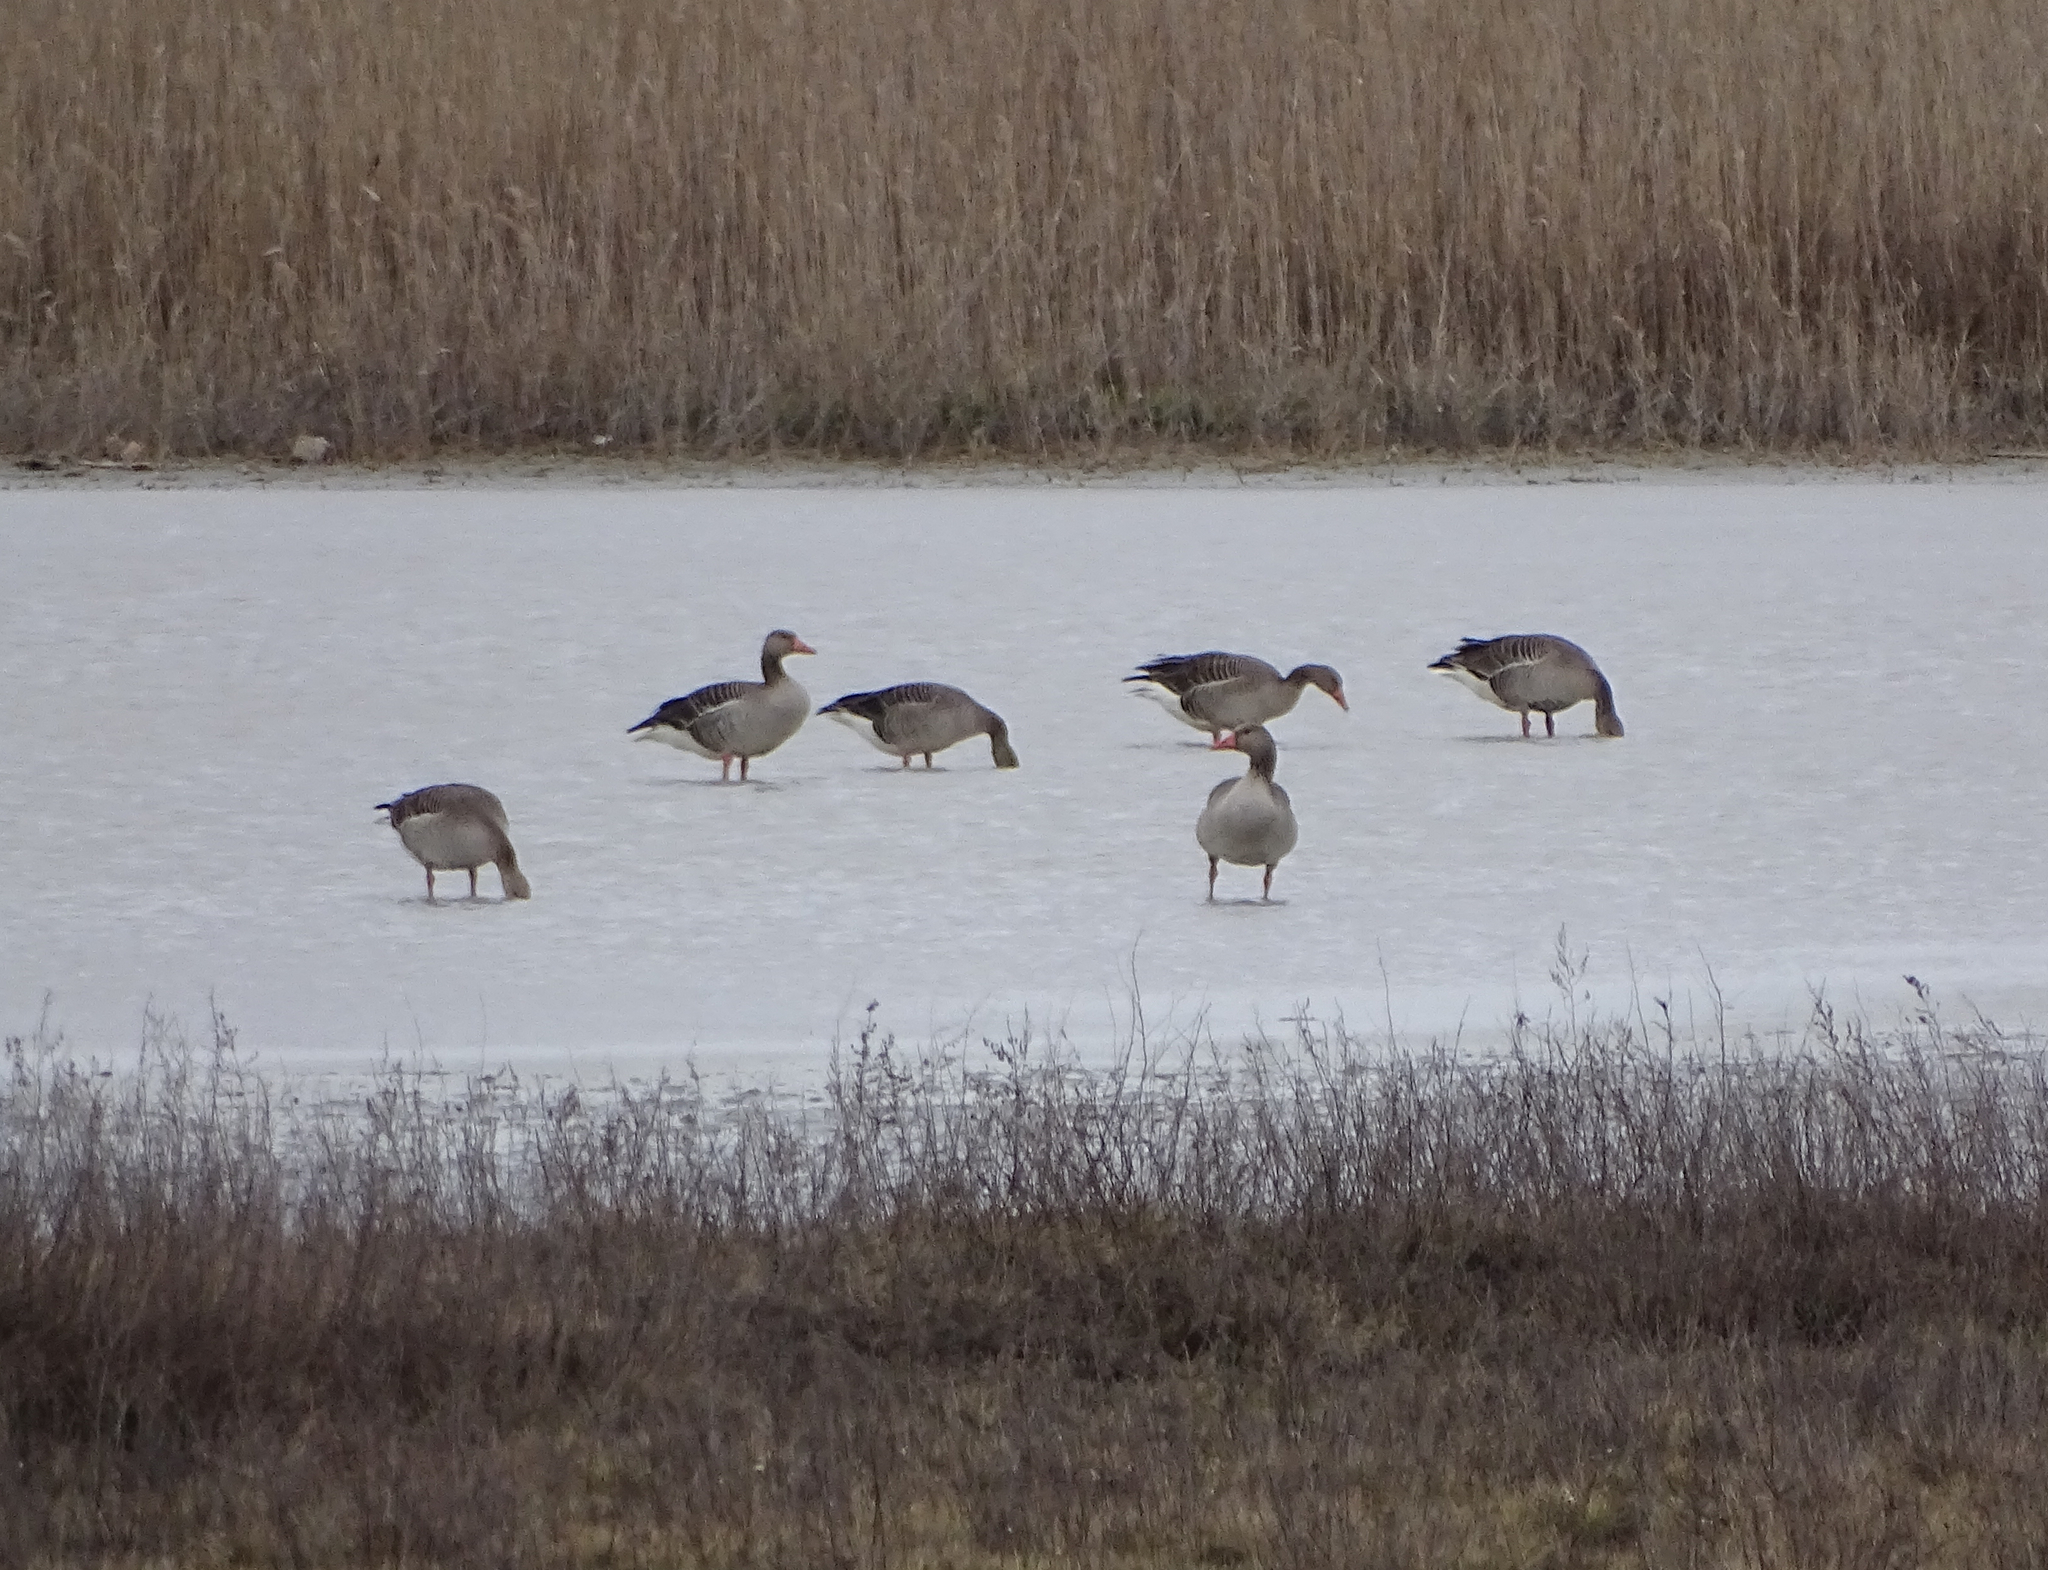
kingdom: Animalia
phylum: Chordata
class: Aves
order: Anseriformes
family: Anatidae
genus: Anser
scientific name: Anser anser
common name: Greylag goose
